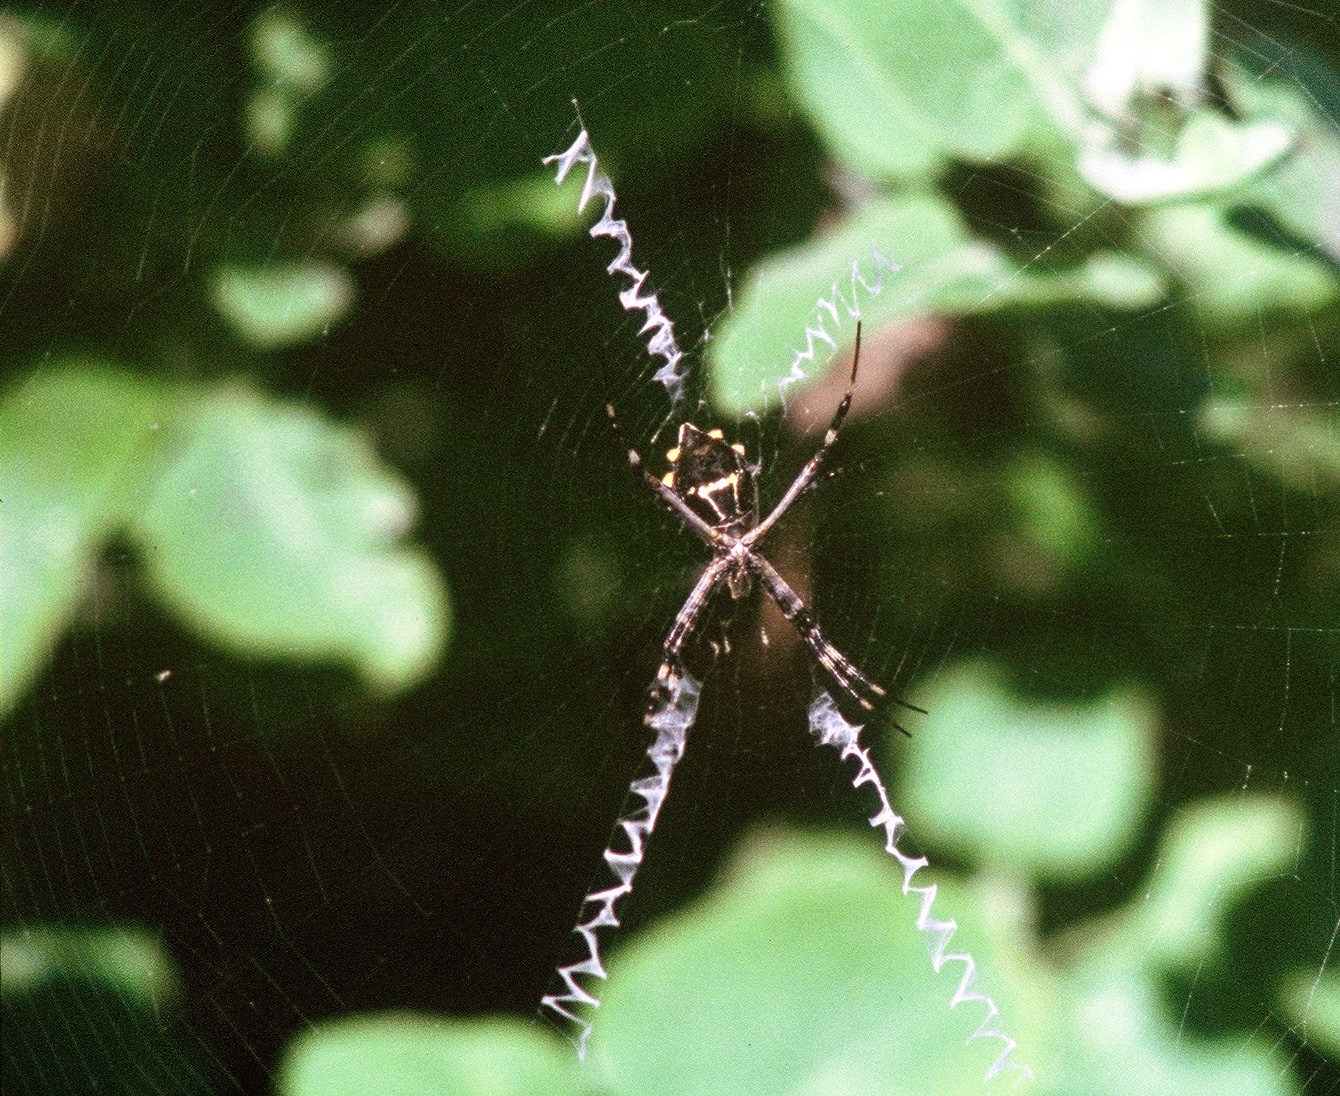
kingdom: Animalia
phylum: Arthropoda
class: Arachnida
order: Araneae
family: Araneidae
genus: Argiope
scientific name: Argiope argentata
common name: Orb weavers
